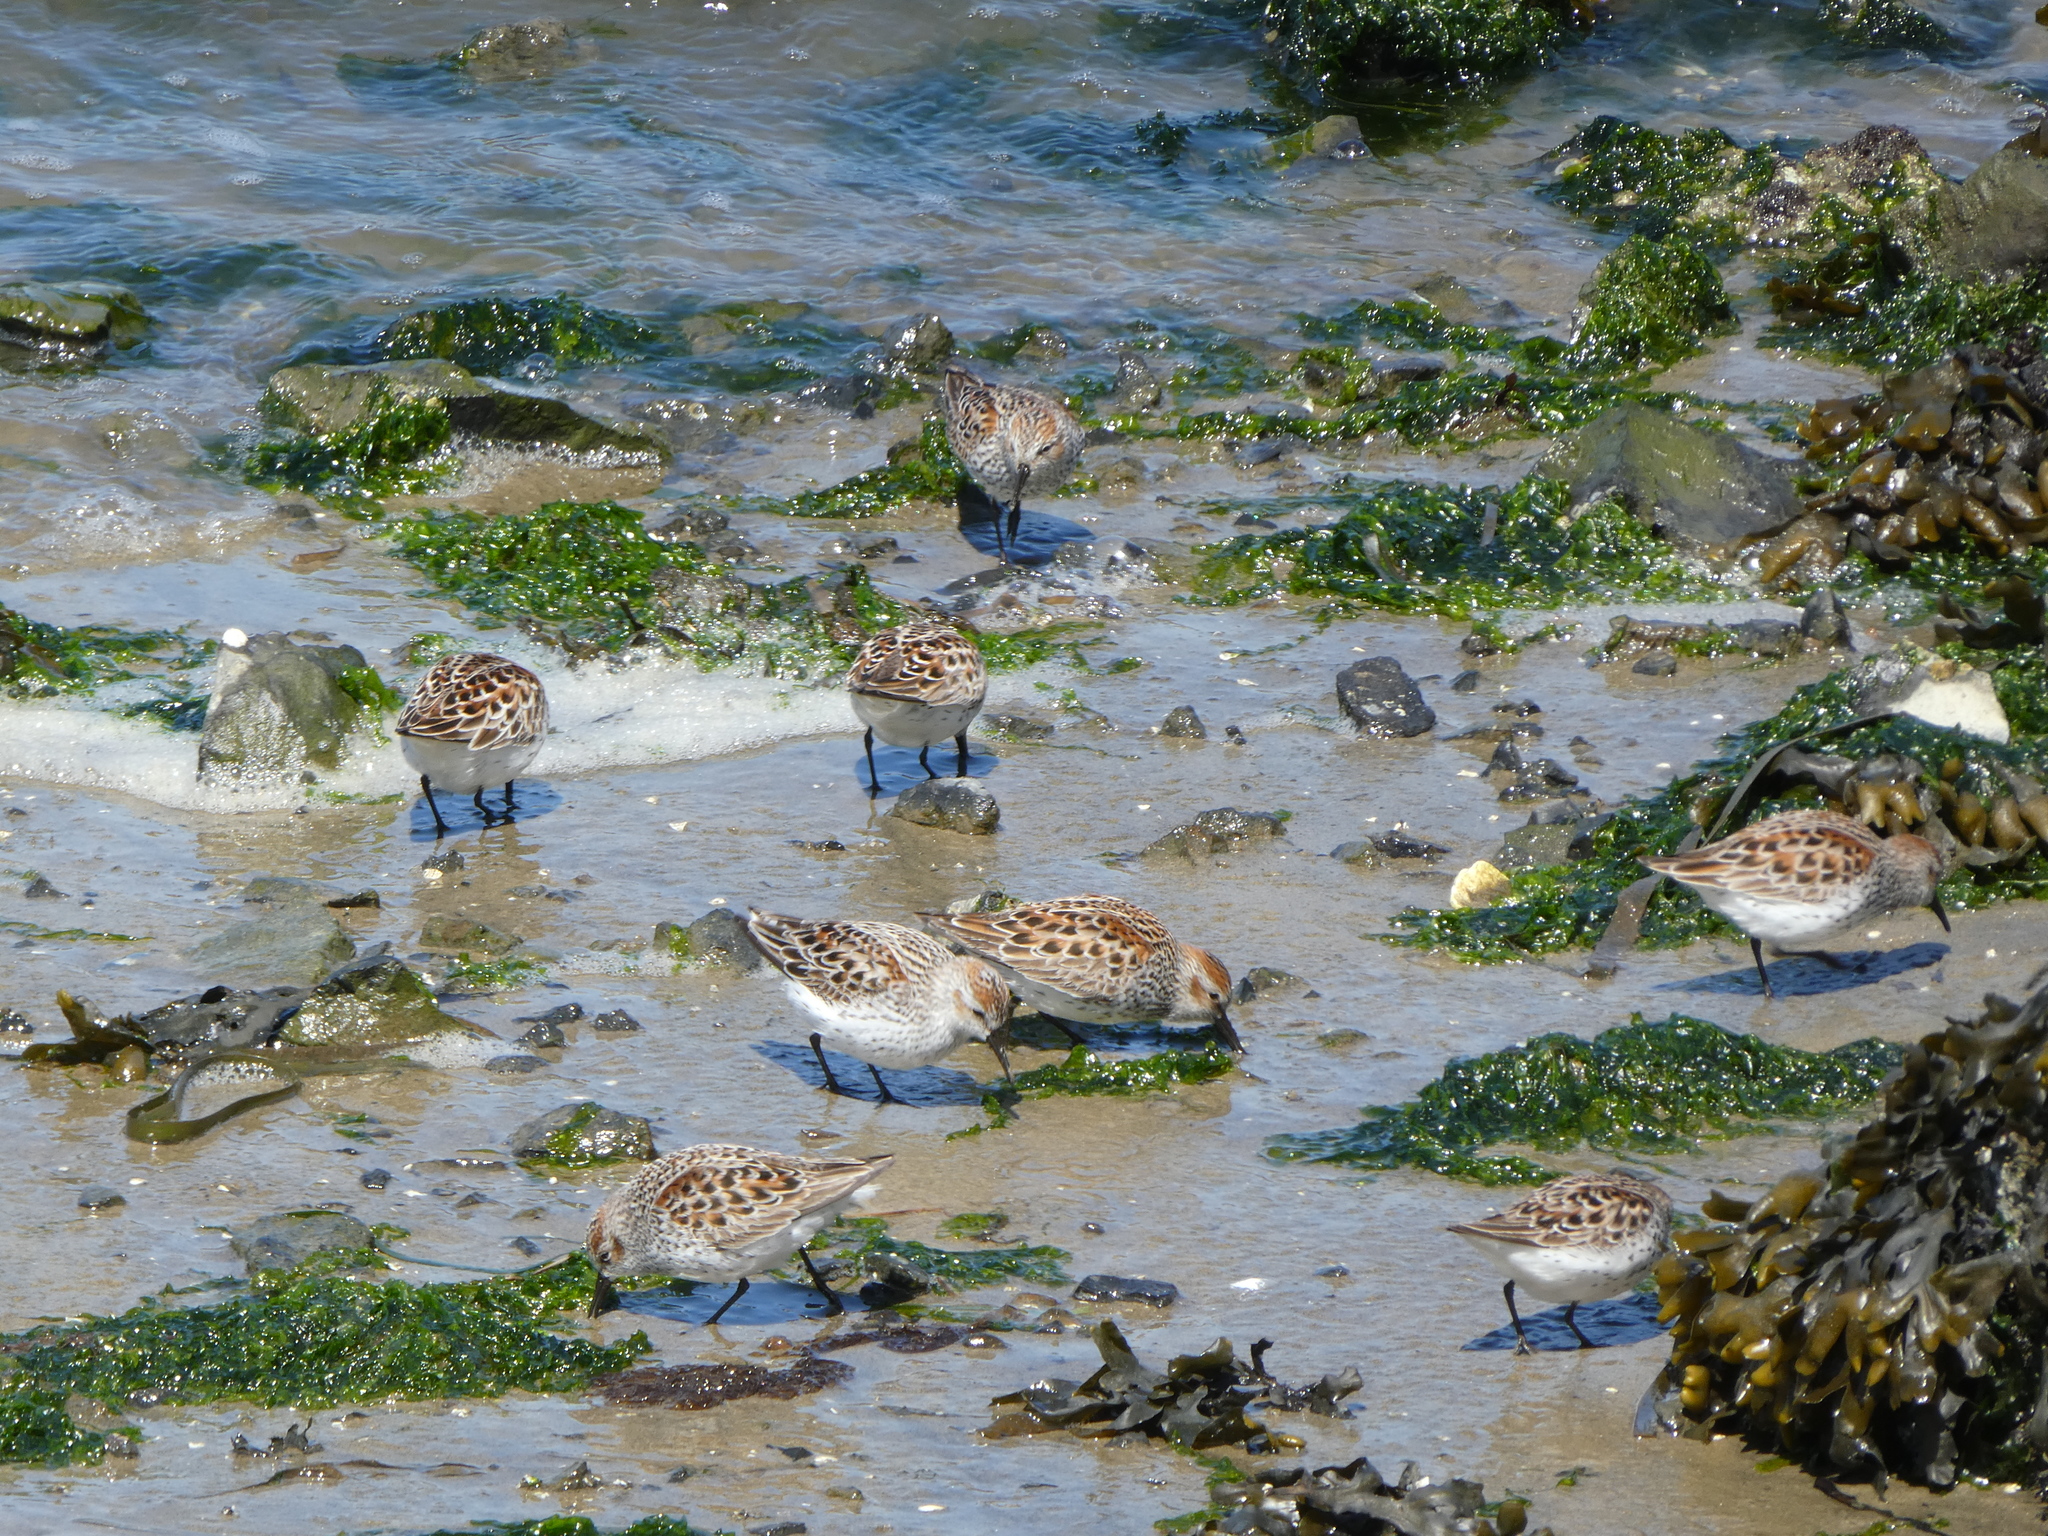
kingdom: Animalia
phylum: Chordata
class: Aves
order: Charadriiformes
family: Scolopacidae
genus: Calidris
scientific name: Calidris mauri
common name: Western sandpiper
